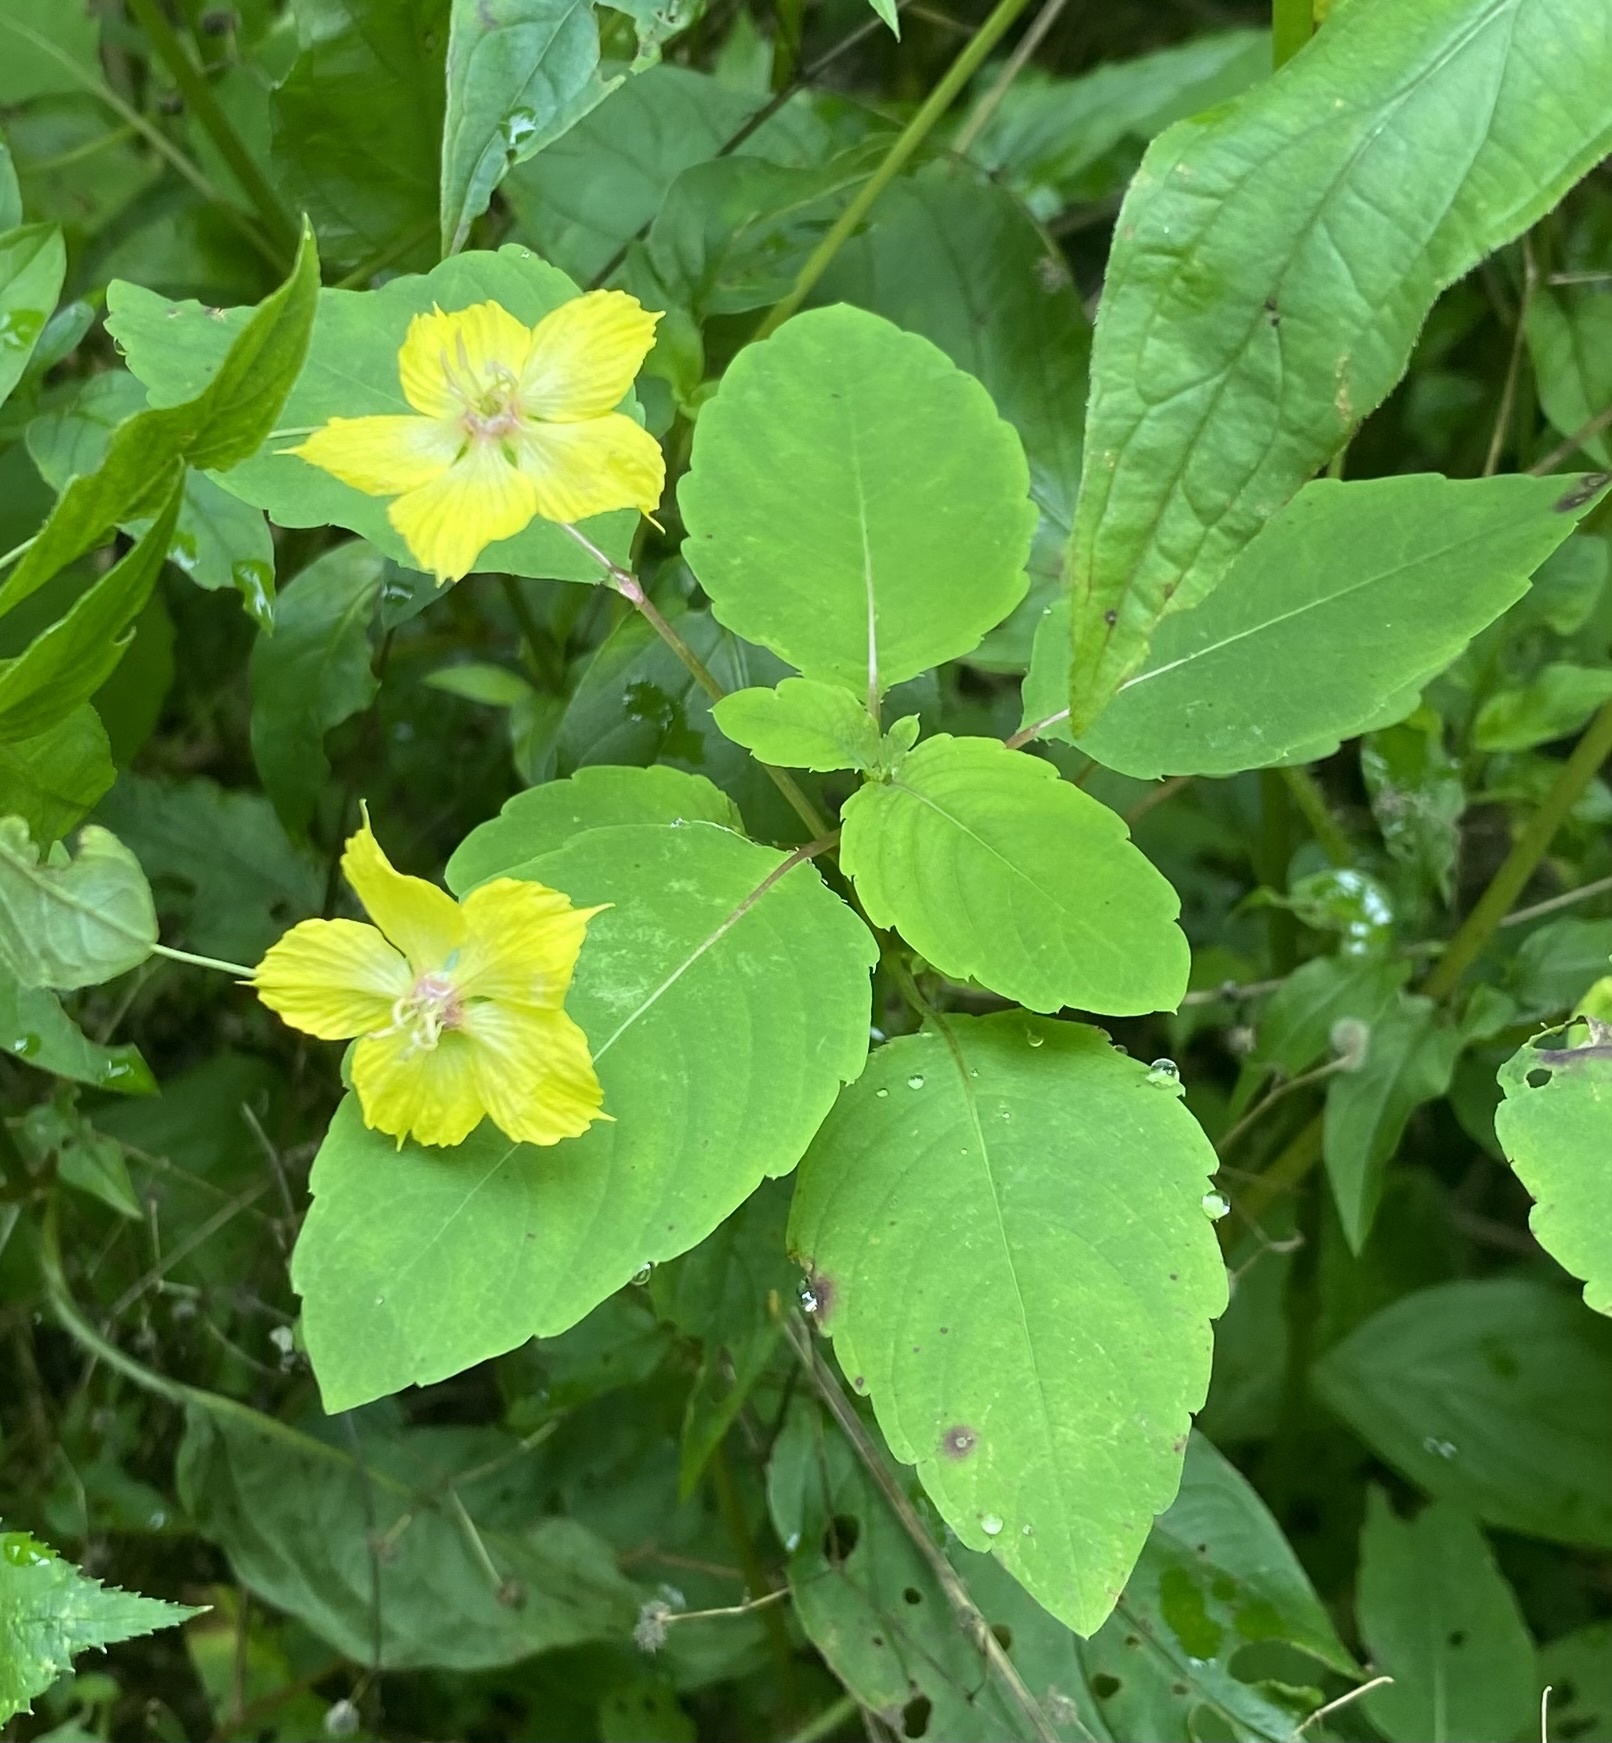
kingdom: Plantae
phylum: Tracheophyta
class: Magnoliopsida
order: Ericales
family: Primulaceae
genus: Lysimachia
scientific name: Lysimachia ciliata
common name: Fringed loosestrife
